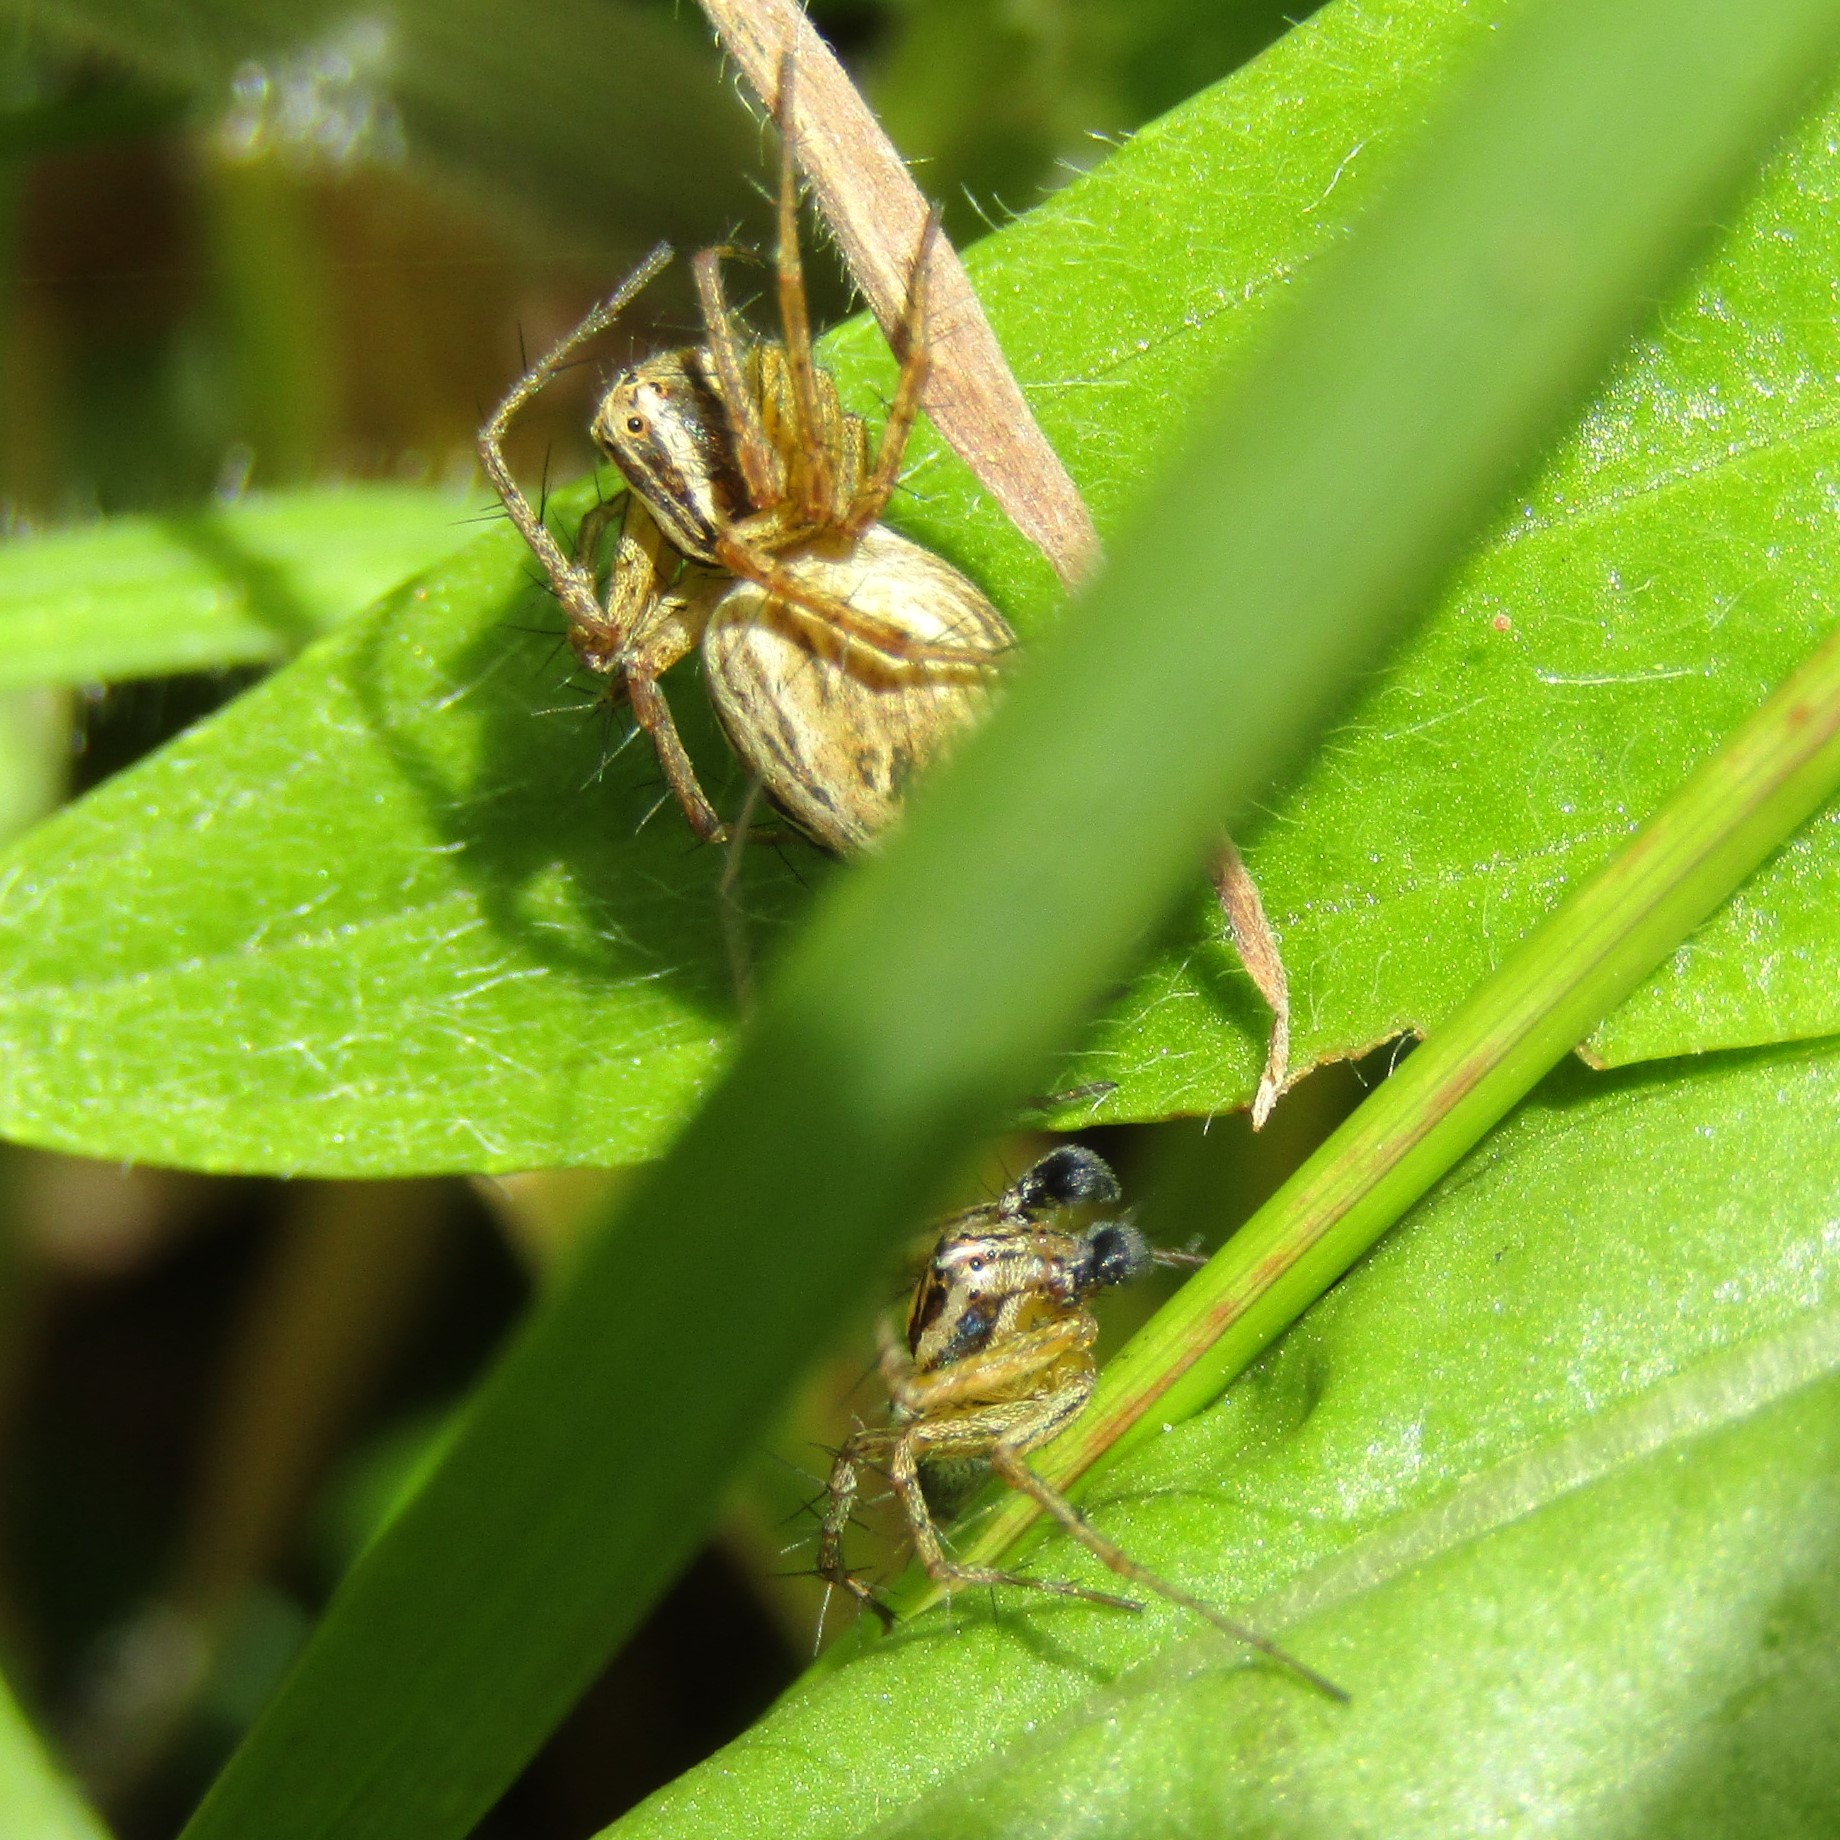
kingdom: Animalia
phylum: Arthropoda
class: Arachnida
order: Araneae
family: Oxyopidae
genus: Oxyopes
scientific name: Oxyopes gracilipes
